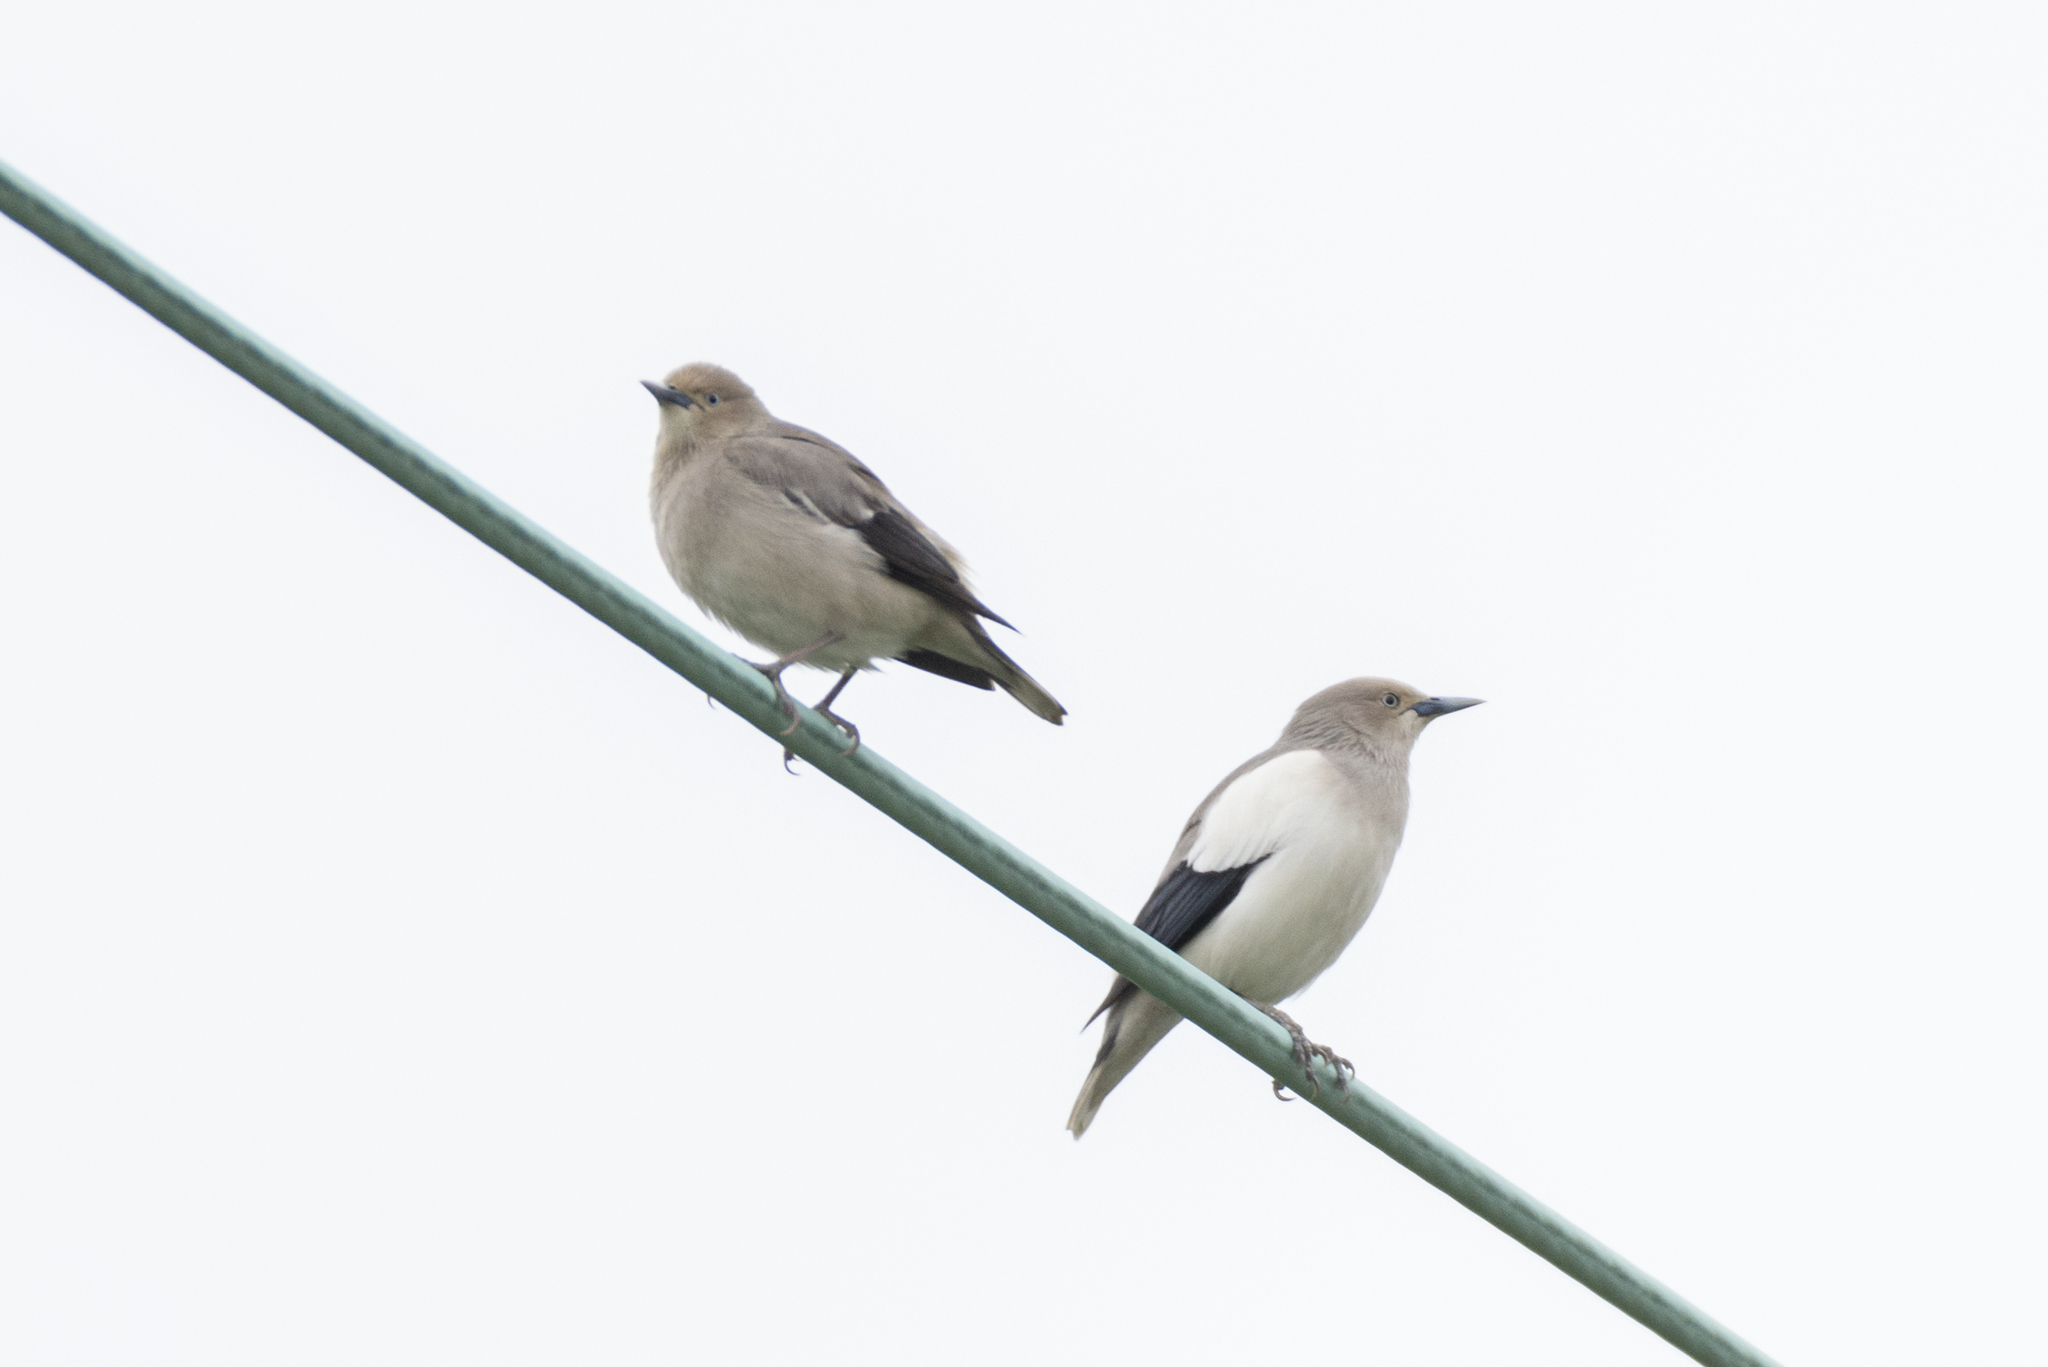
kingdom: Animalia
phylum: Chordata
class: Aves
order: Passeriformes
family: Sturnidae
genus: Sturnia
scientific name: Sturnia sinensis
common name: White-shouldered starling
